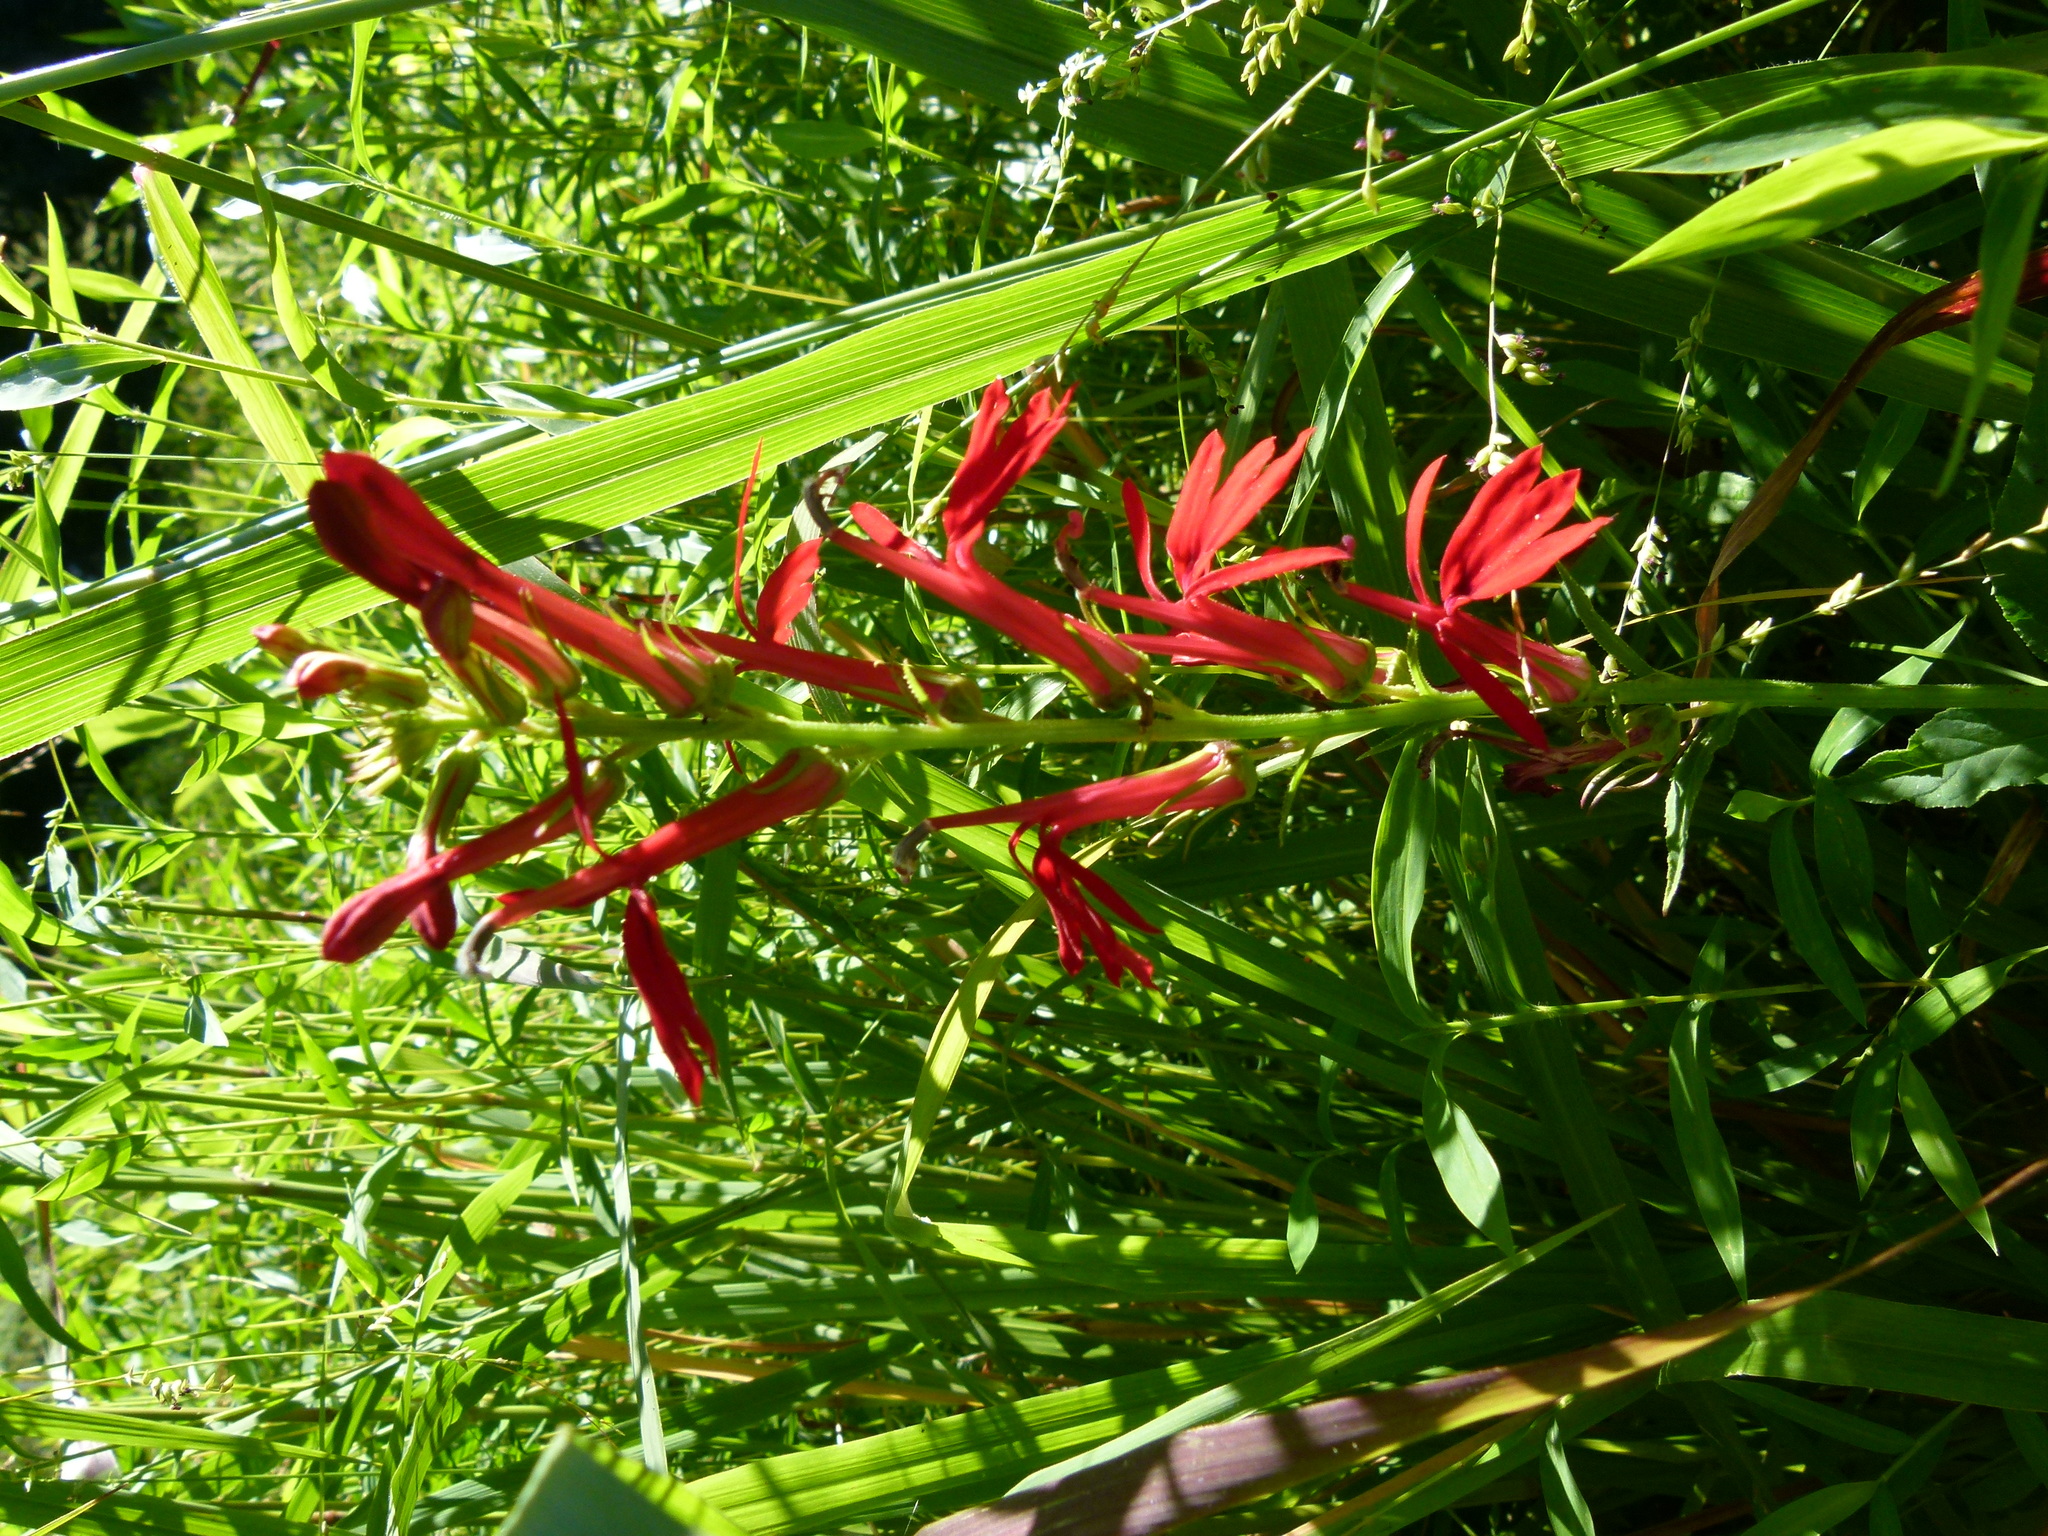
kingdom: Plantae
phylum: Tracheophyta
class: Magnoliopsida
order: Asterales
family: Campanulaceae
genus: Lobelia
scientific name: Lobelia cardinalis
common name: Cardinal flower
